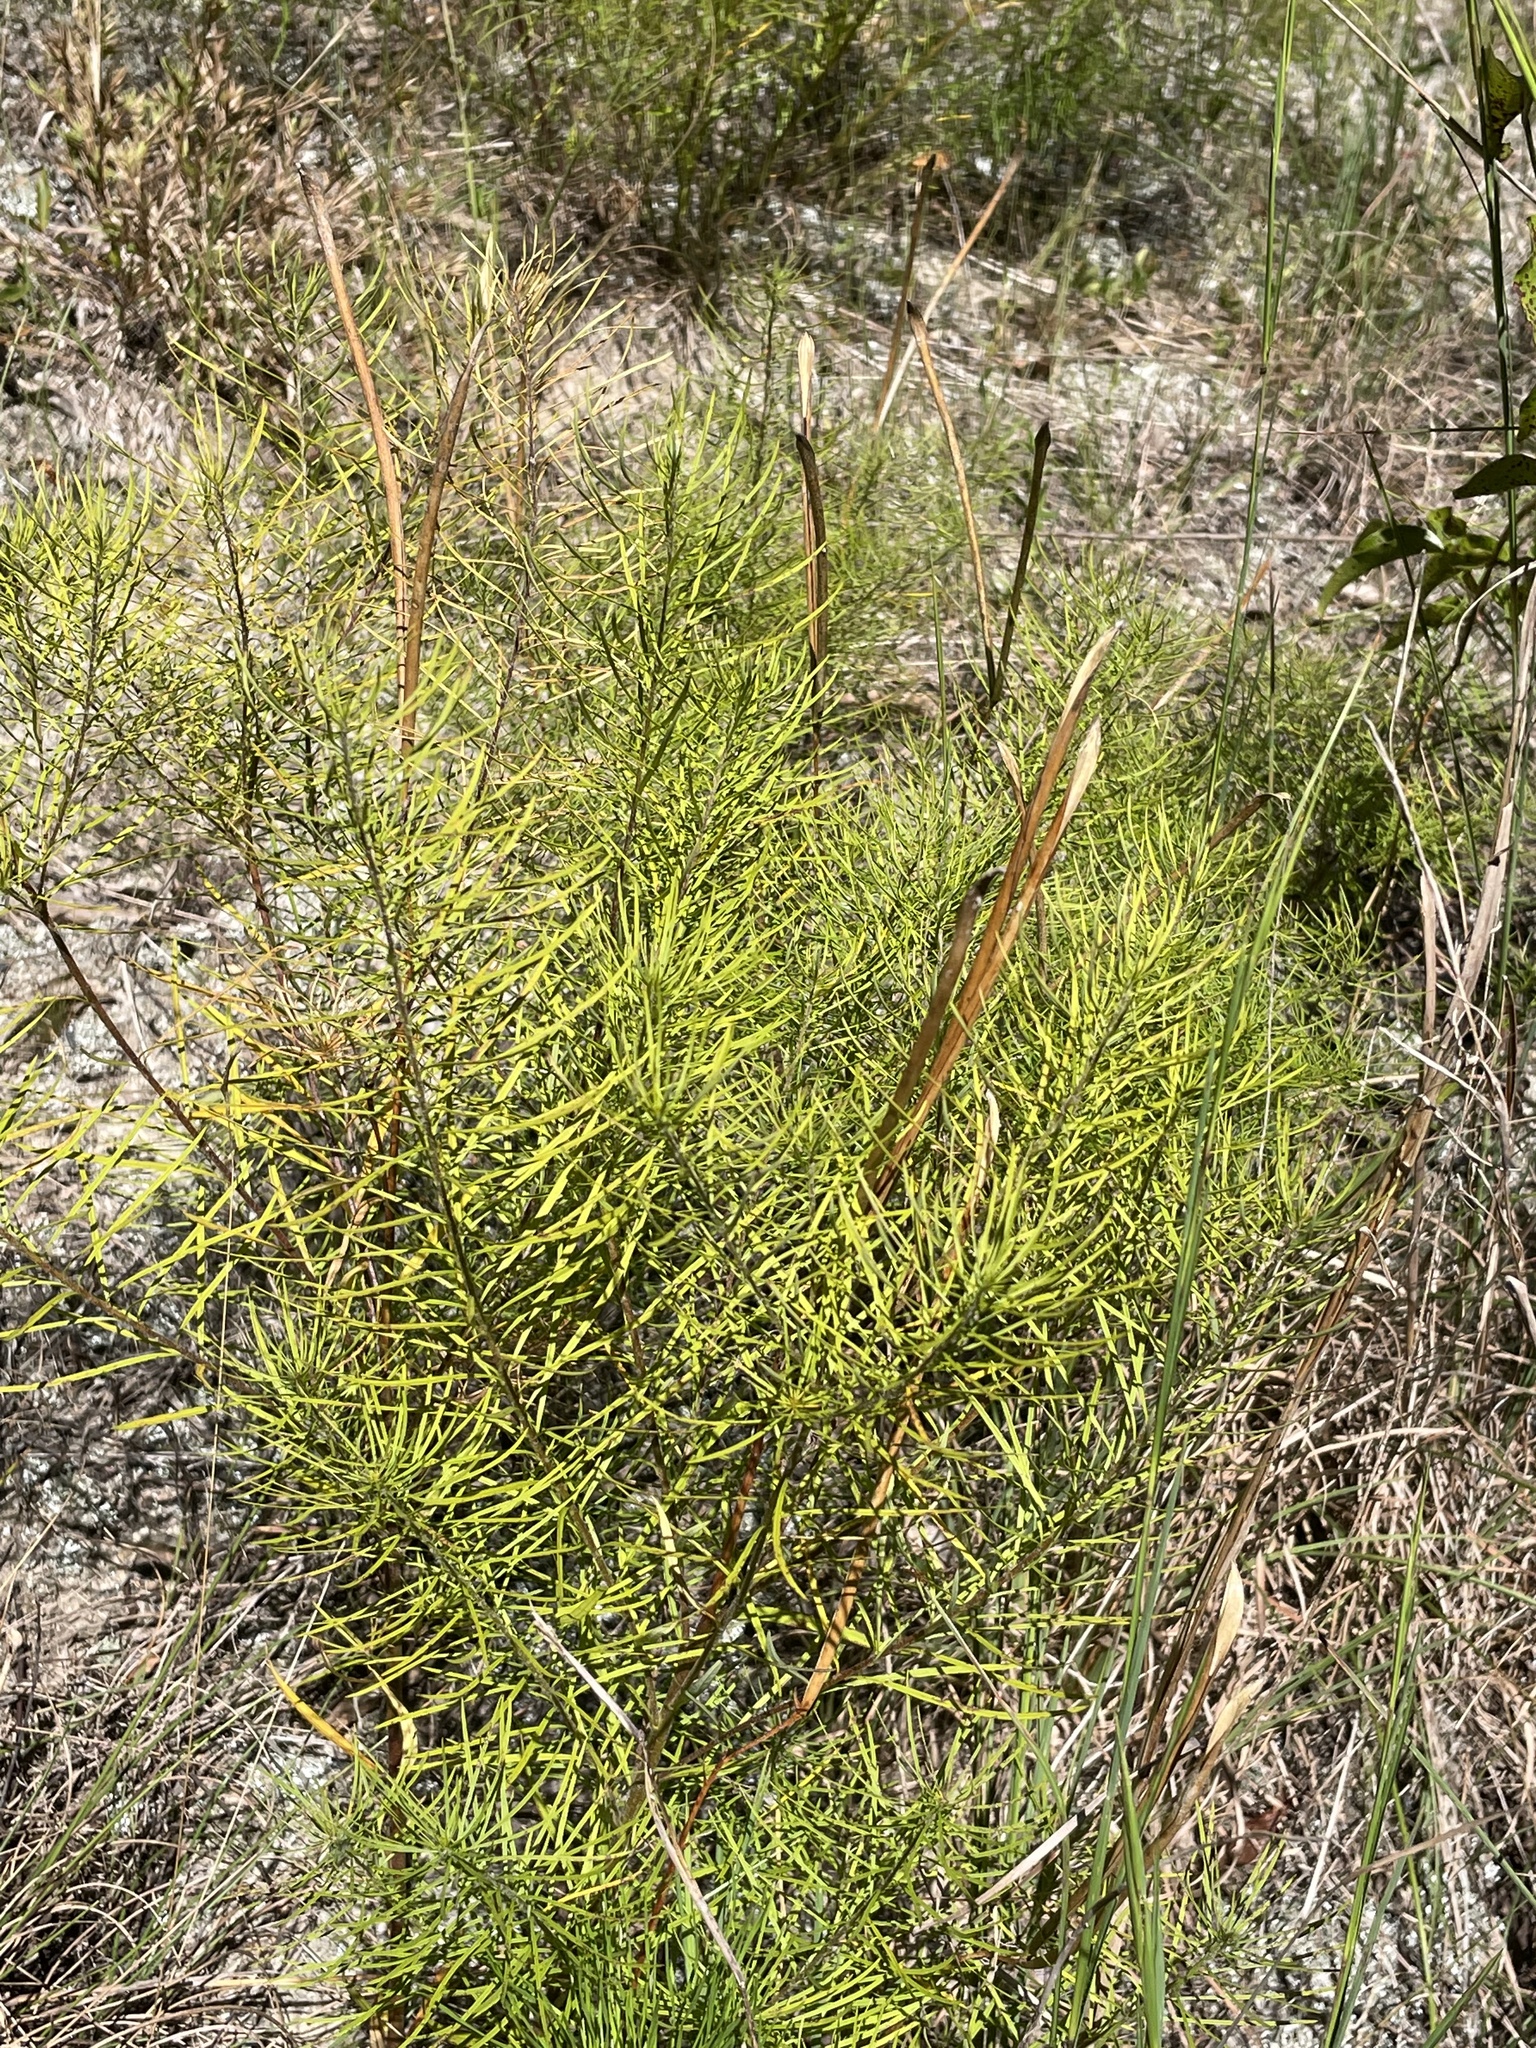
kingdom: Plantae
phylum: Tracheophyta
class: Magnoliopsida
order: Gentianales
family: Apocynaceae
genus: Amsonia
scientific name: Amsonia ciliata
